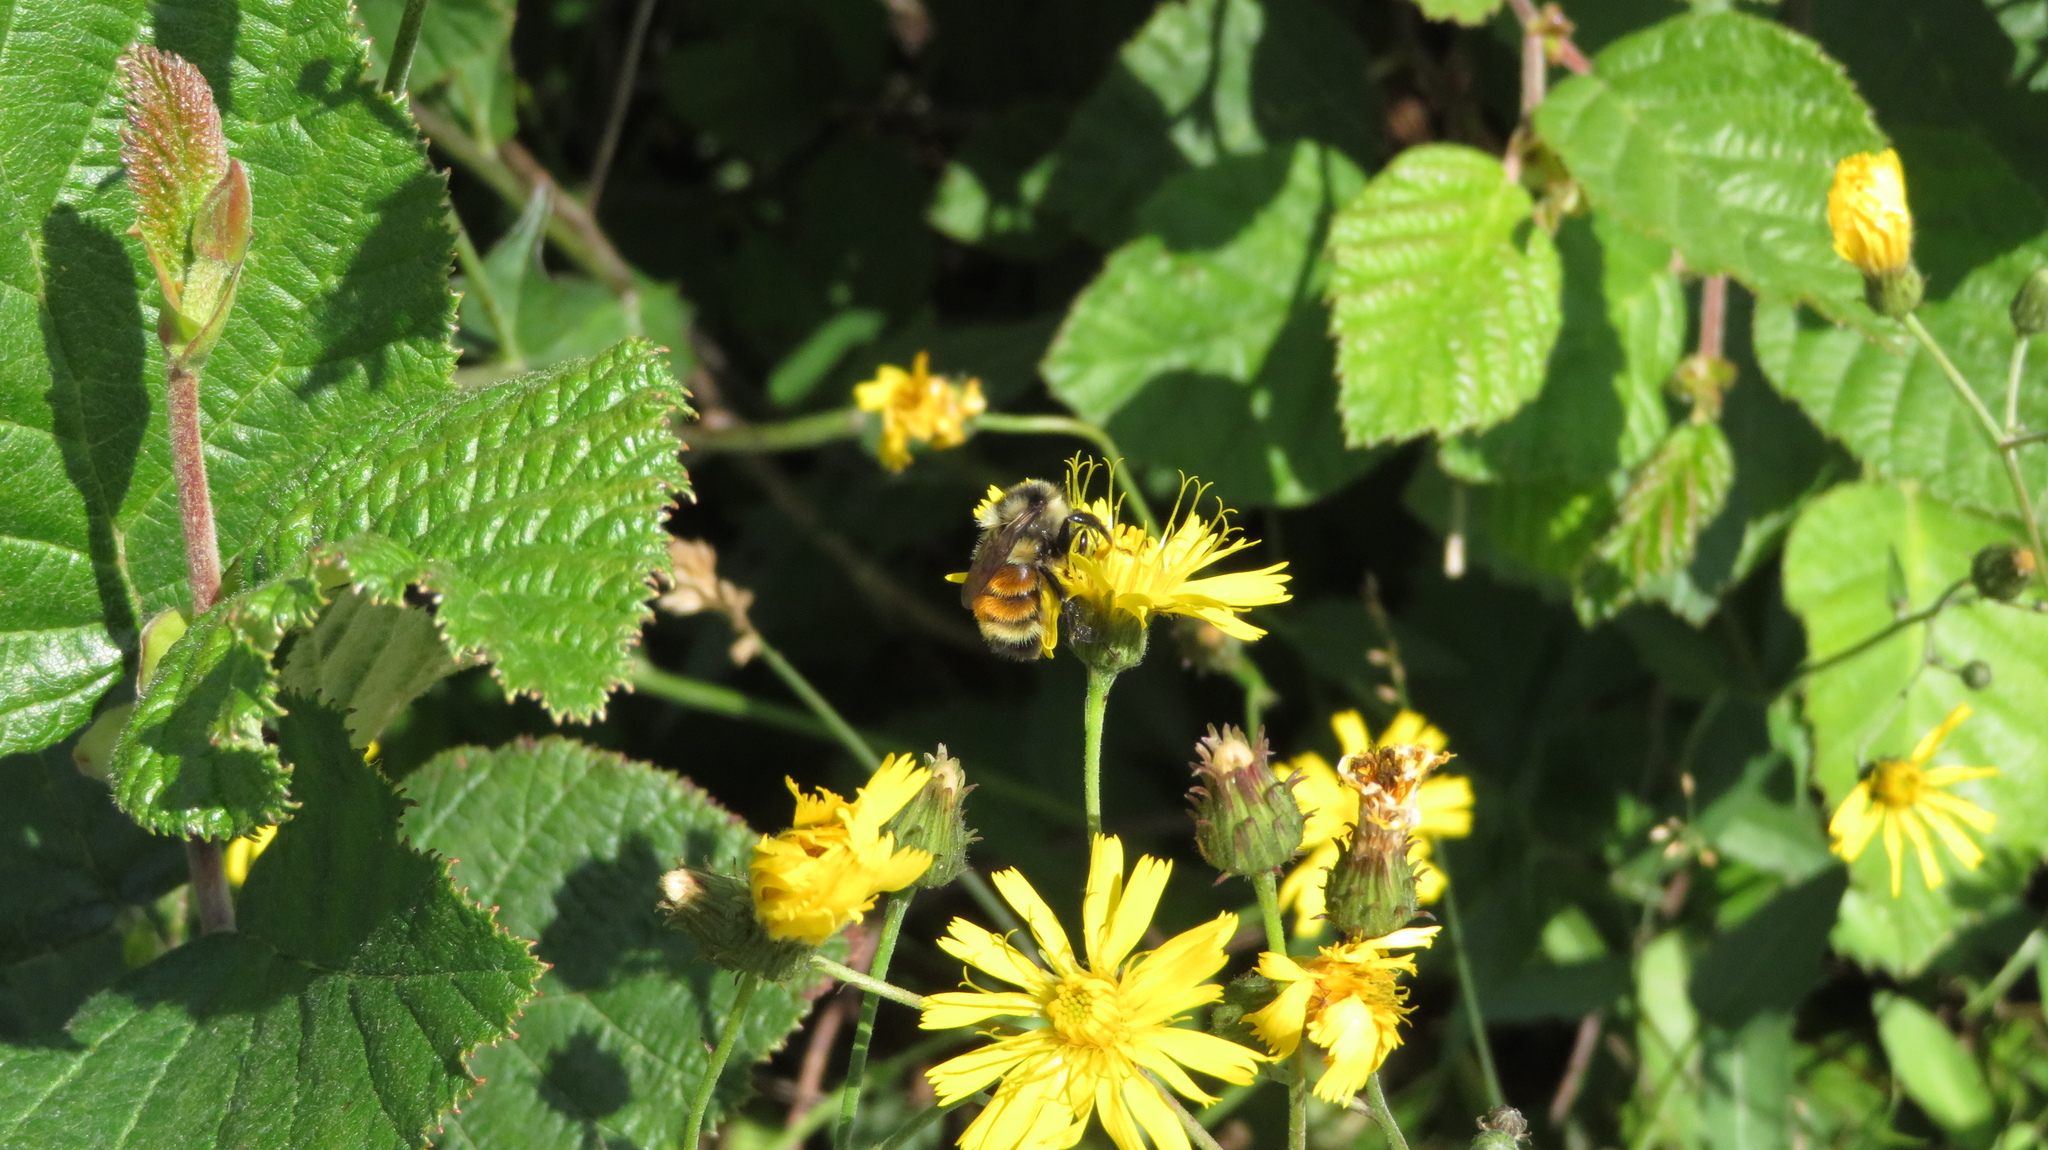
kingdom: Animalia
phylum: Arthropoda
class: Insecta
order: Hymenoptera
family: Apidae
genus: Bombus
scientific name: Bombus ternarius
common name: Tri-colored bumble bee
